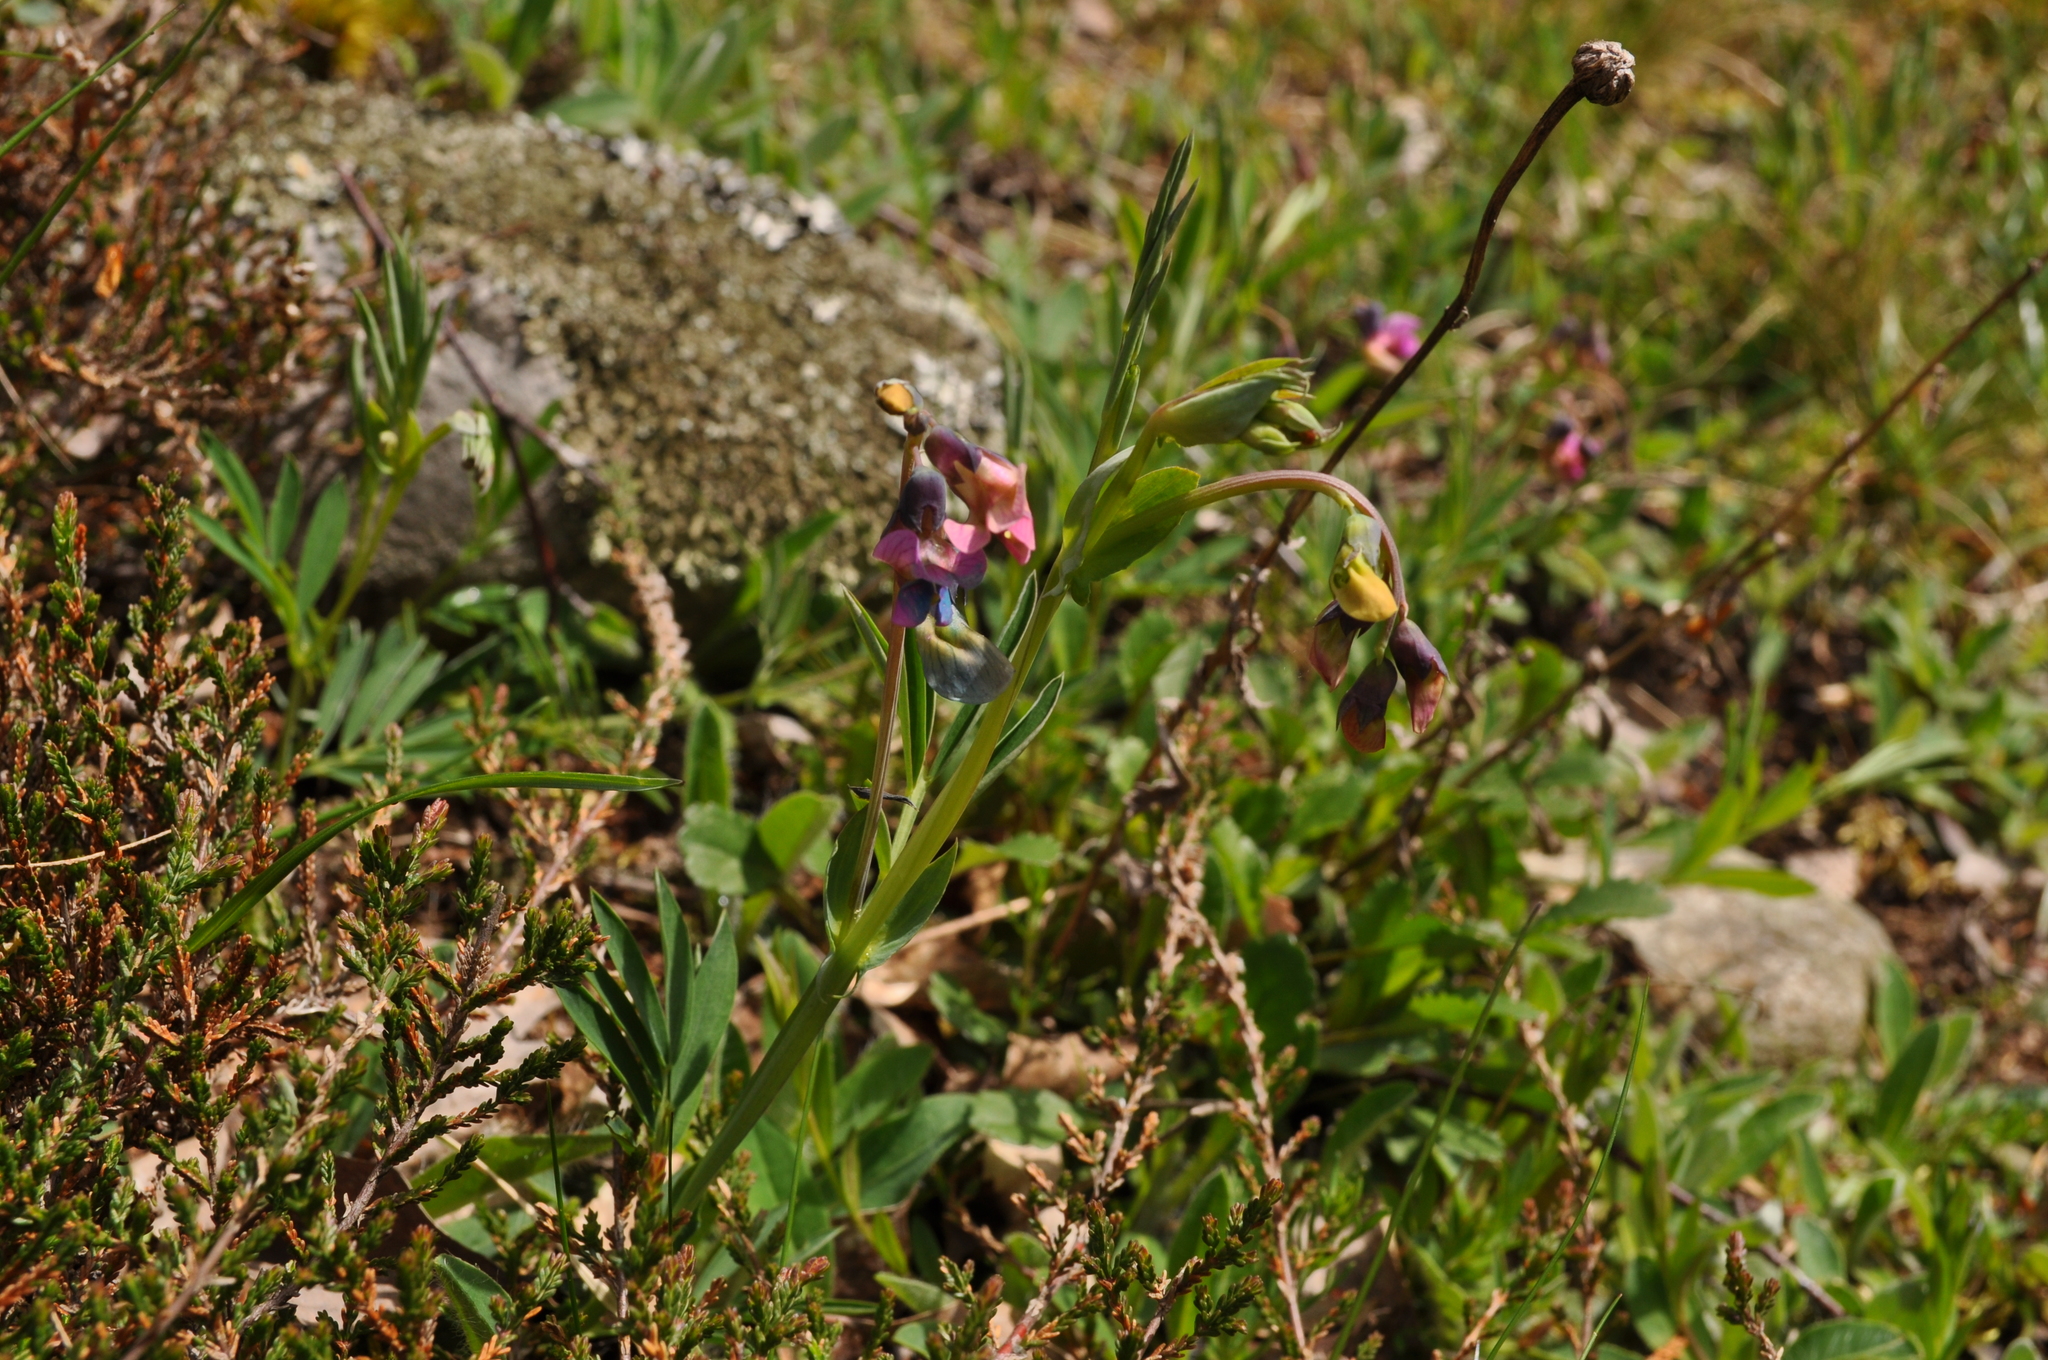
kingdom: Plantae
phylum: Tracheophyta
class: Magnoliopsida
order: Fabales
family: Fabaceae
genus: Lathyrus
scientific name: Lathyrus linifolius
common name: Bitter-vetch
